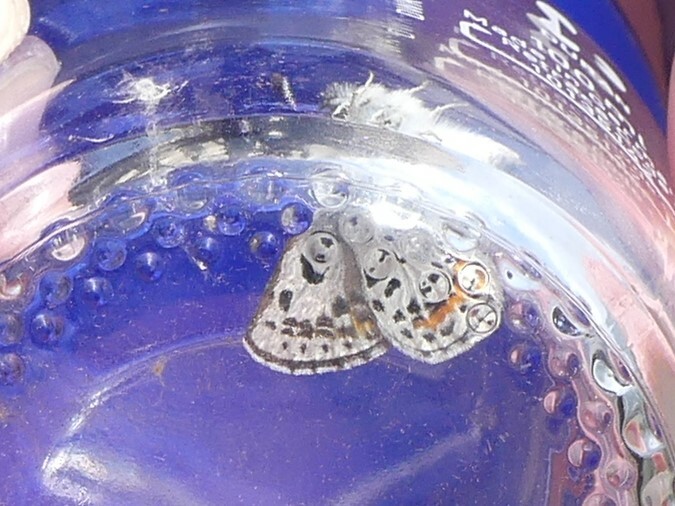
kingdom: Animalia
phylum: Arthropoda
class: Insecta
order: Lepidoptera
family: Lycaenidae
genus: Euphilotes
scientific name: Euphilotes
